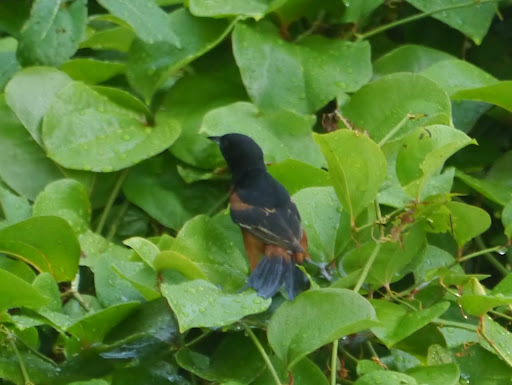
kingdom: Animalia
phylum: Chordata
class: Aves
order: Passeriformes
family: Icteridae
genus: Icterus
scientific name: Icterus spurius
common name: Orchard oriole
